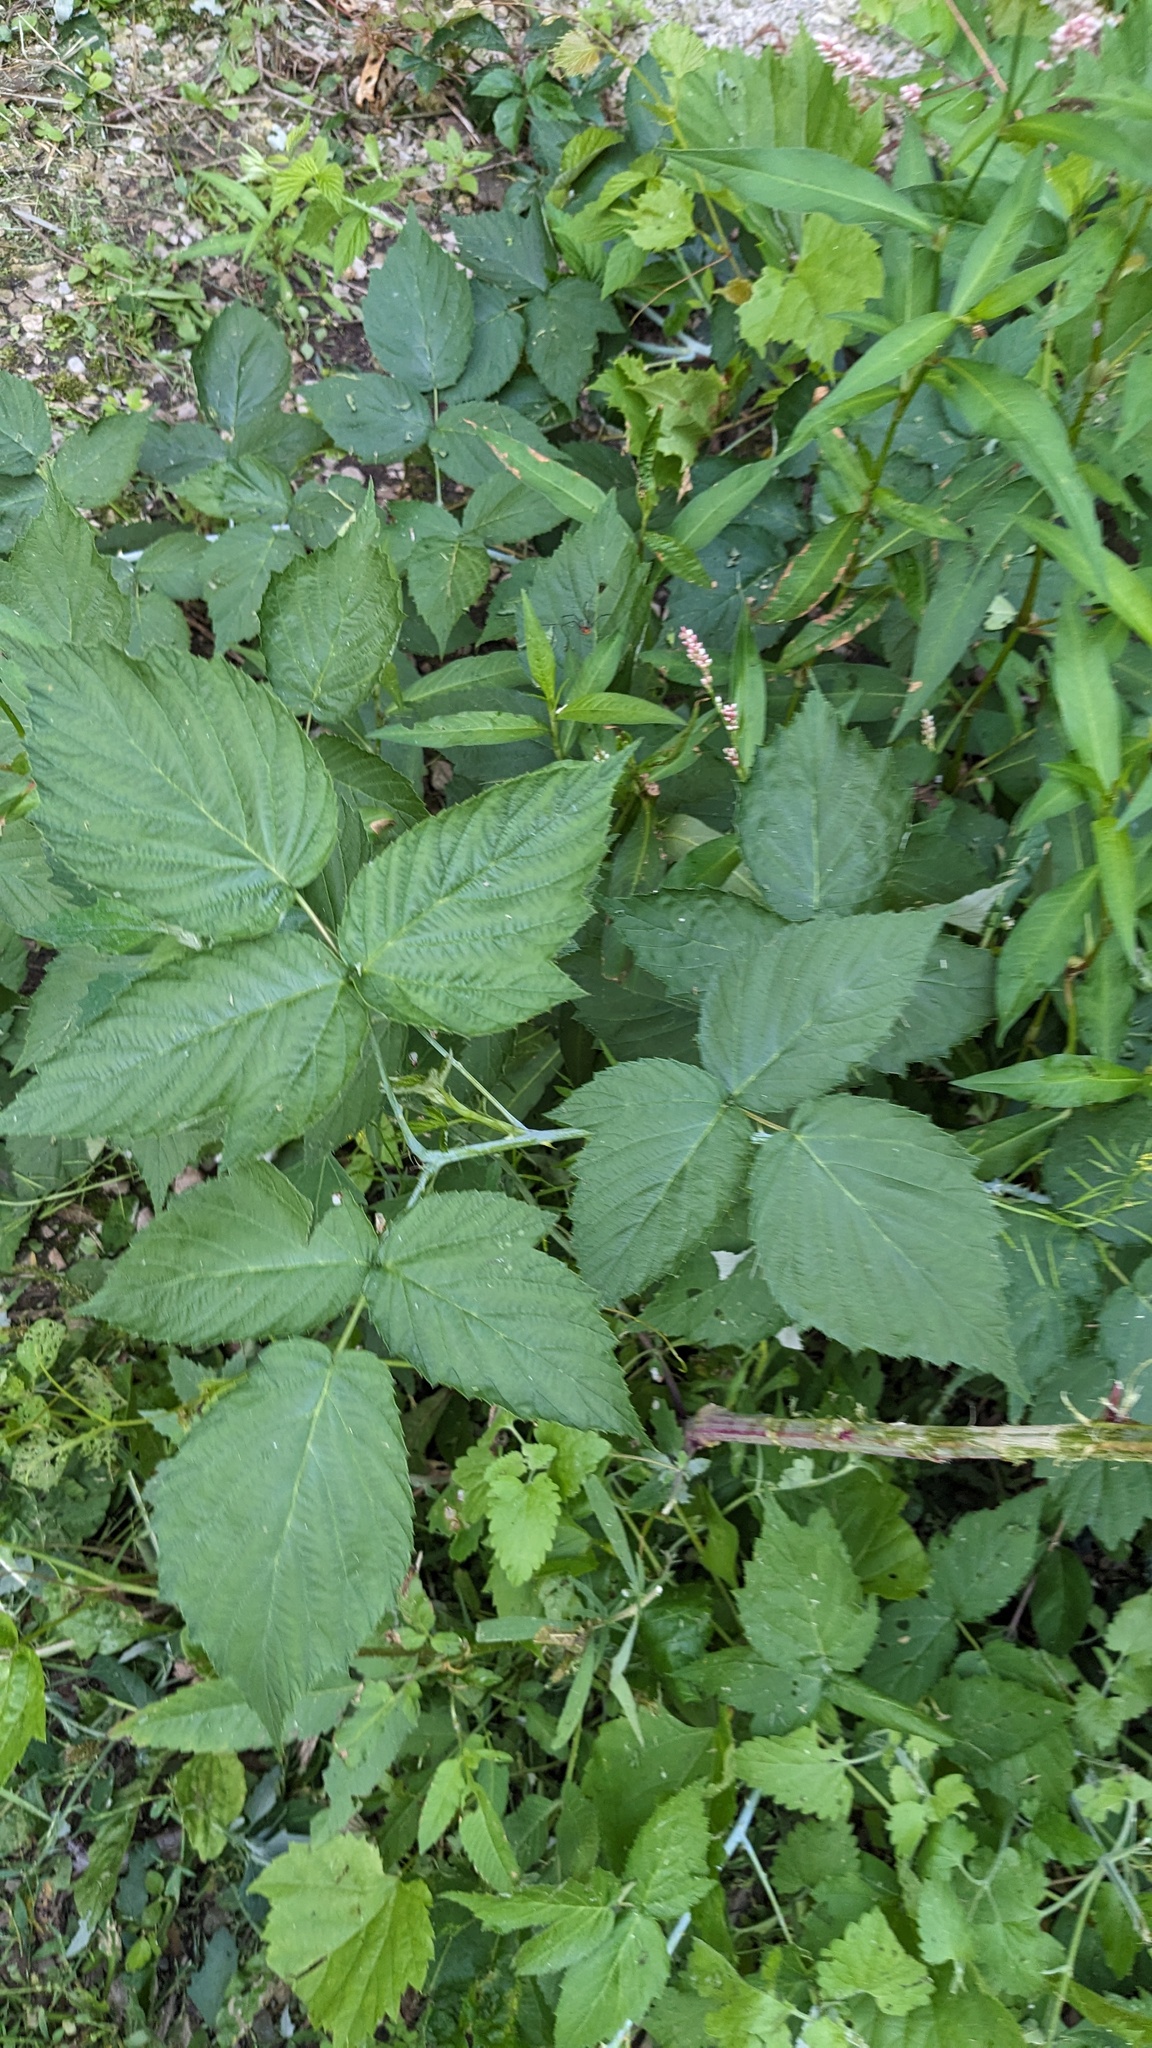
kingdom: Plantae
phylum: Tracheophyta
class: Magnoliopsida
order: Rosales
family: Rosaceae
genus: Rubus
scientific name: Rubus occidentalis
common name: Black raspberry
